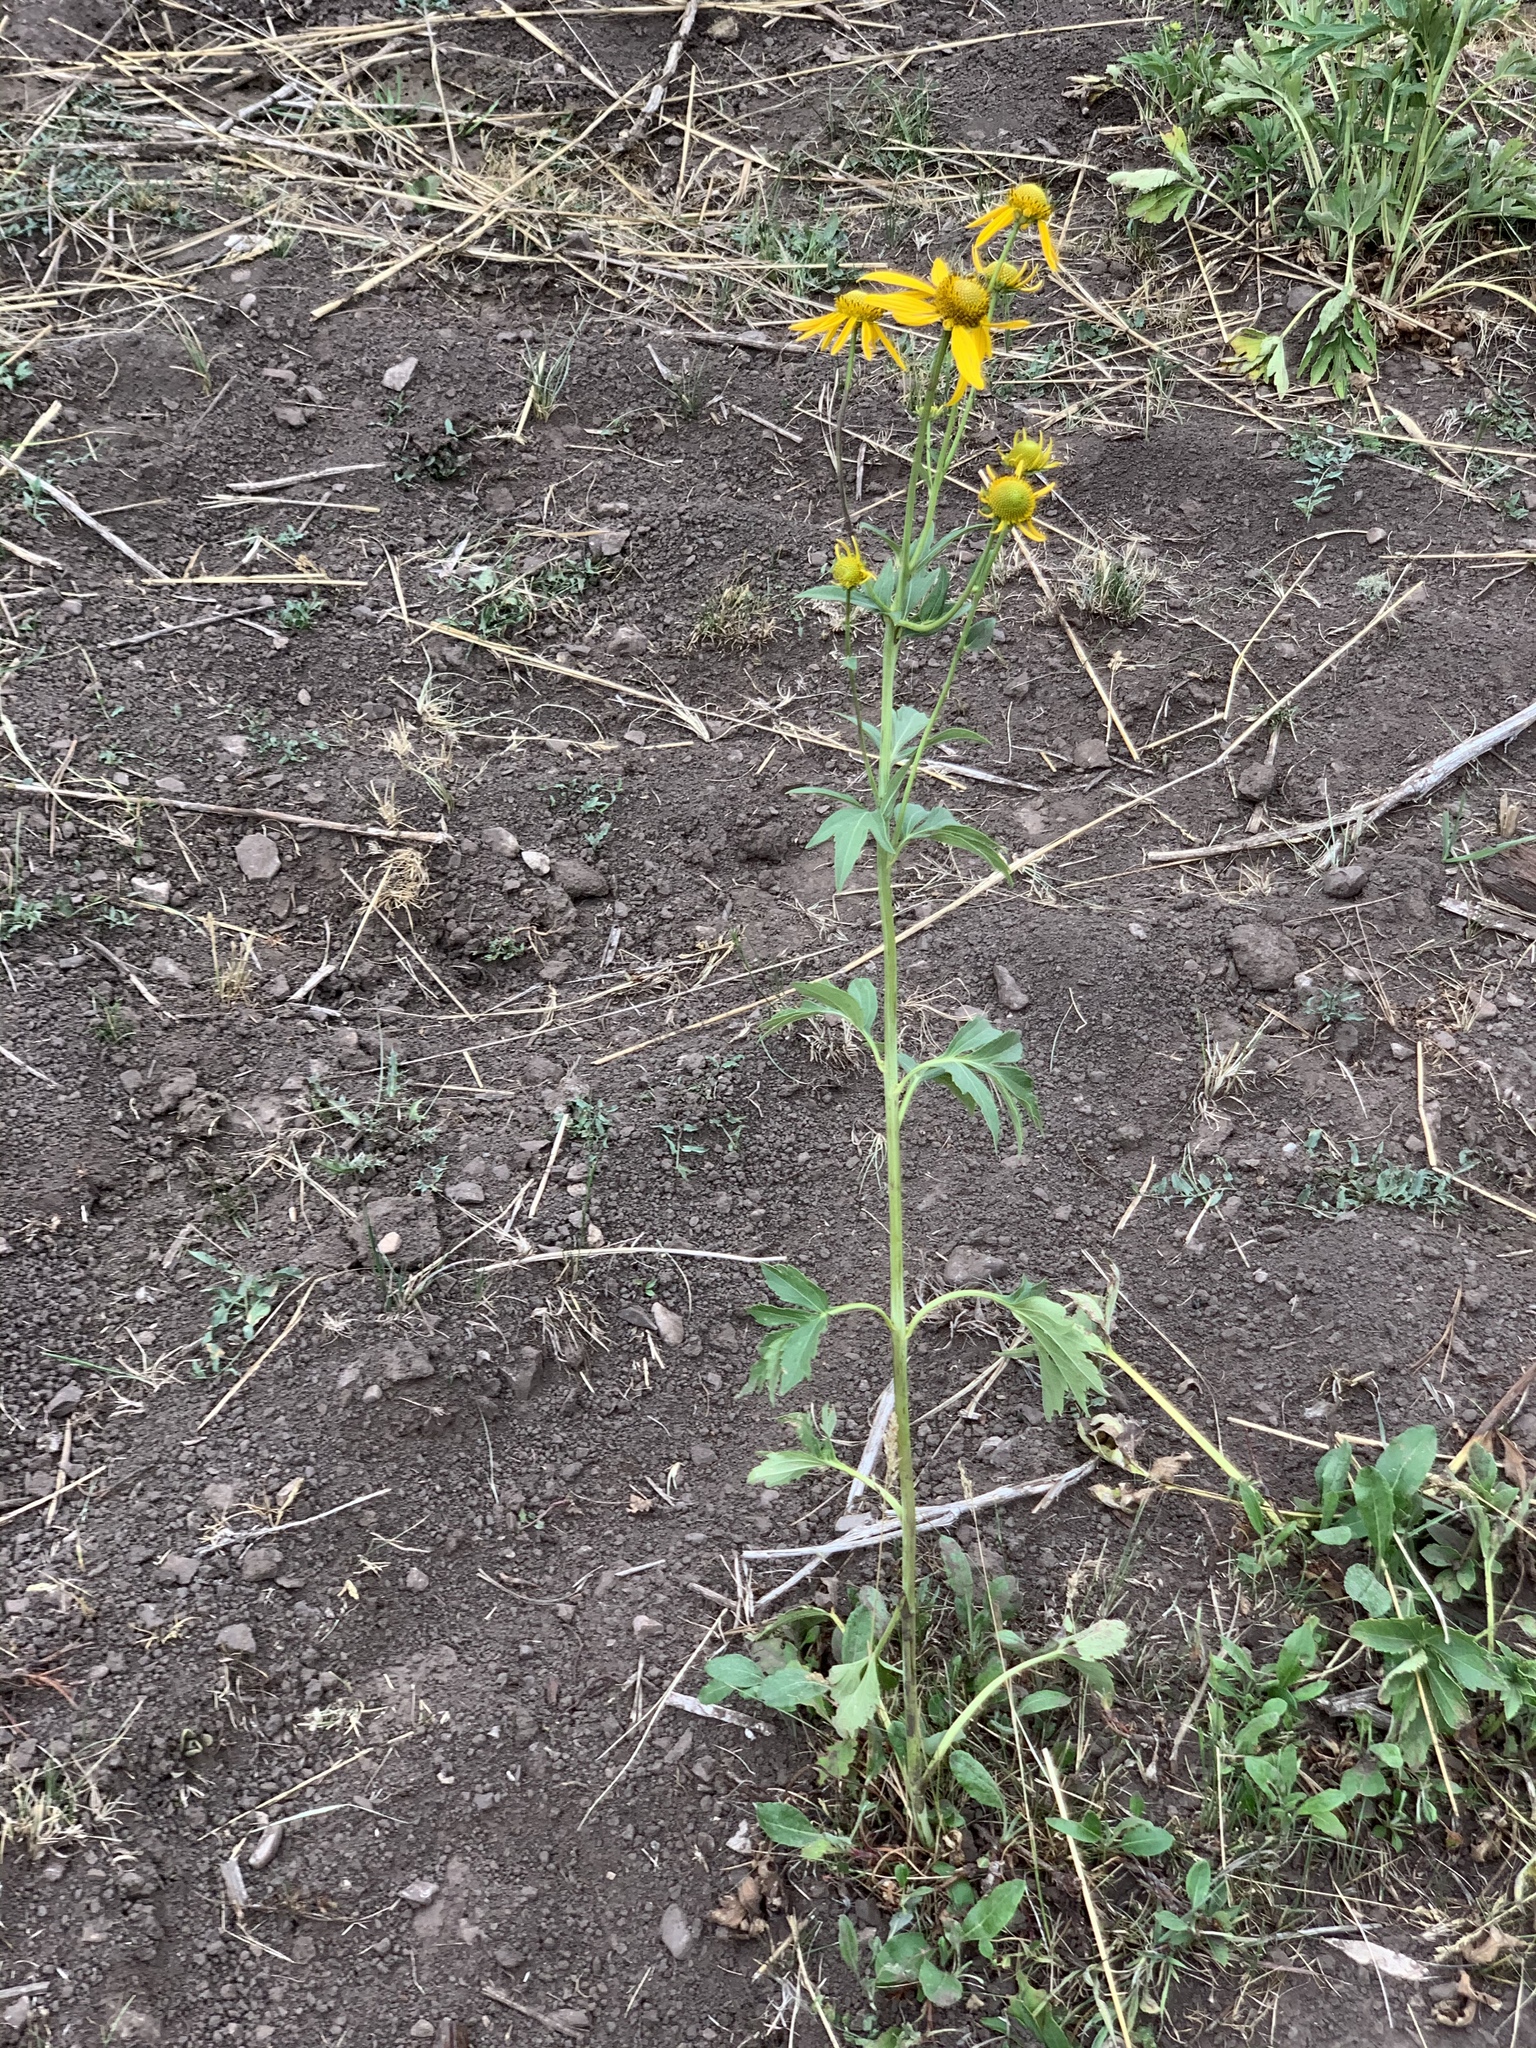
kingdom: Plantae
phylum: Tracheophyta
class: Magnoliopsida
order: Asterales
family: Asteraceae
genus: Rudbeckia
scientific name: Rudbeckia laciniata
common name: Coneflower
